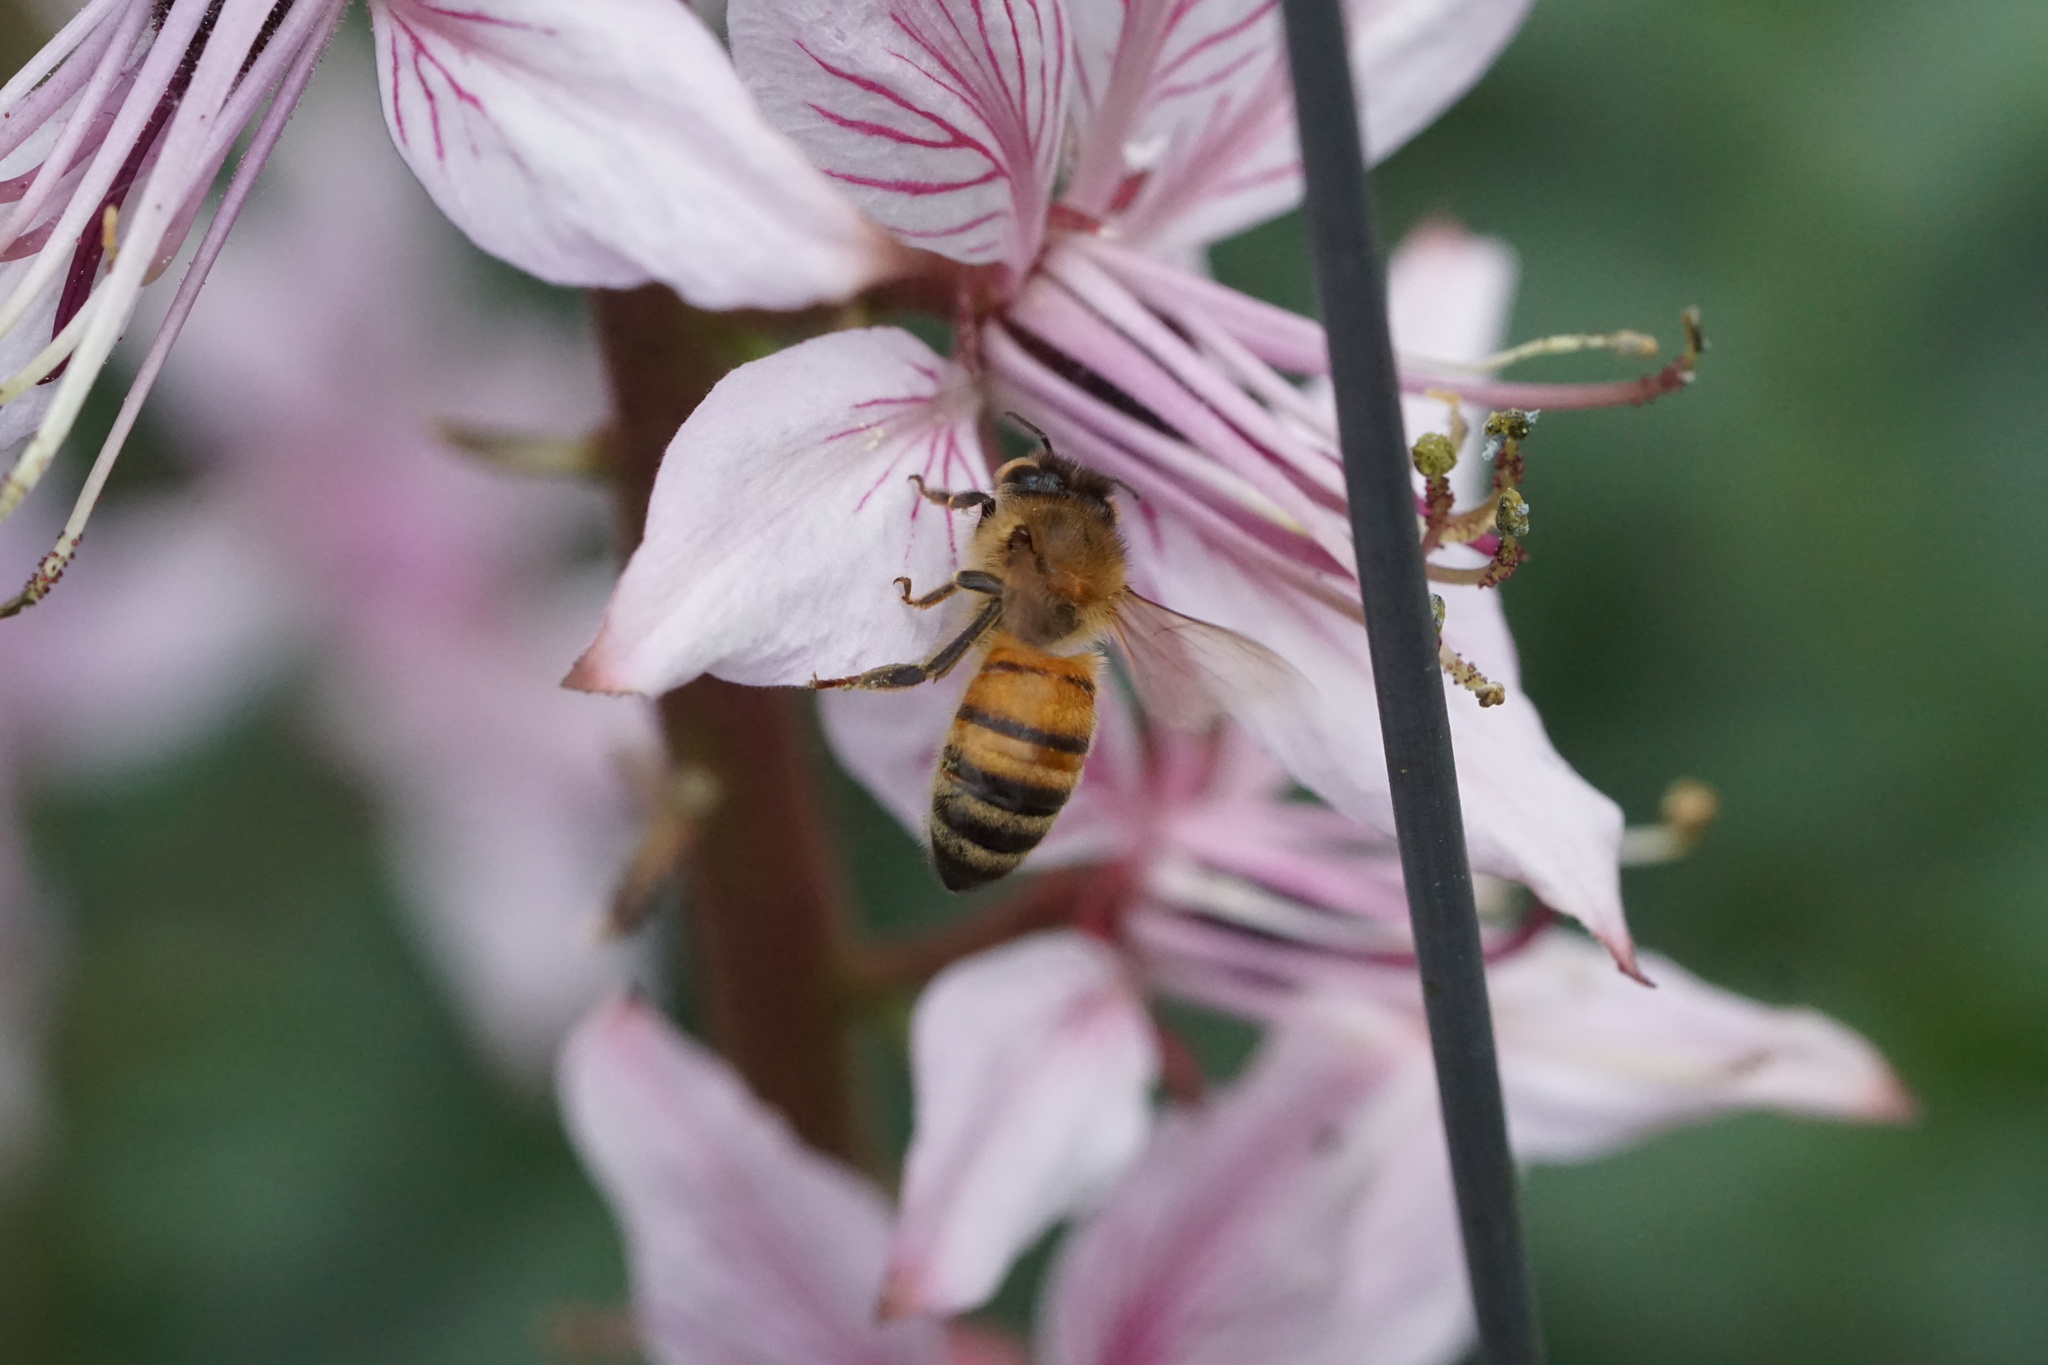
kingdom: Animalia
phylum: Arthropoda
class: Insecta
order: Hymenoptera
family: Apidae
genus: Apis
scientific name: Apis mellifera
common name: Honey bee
